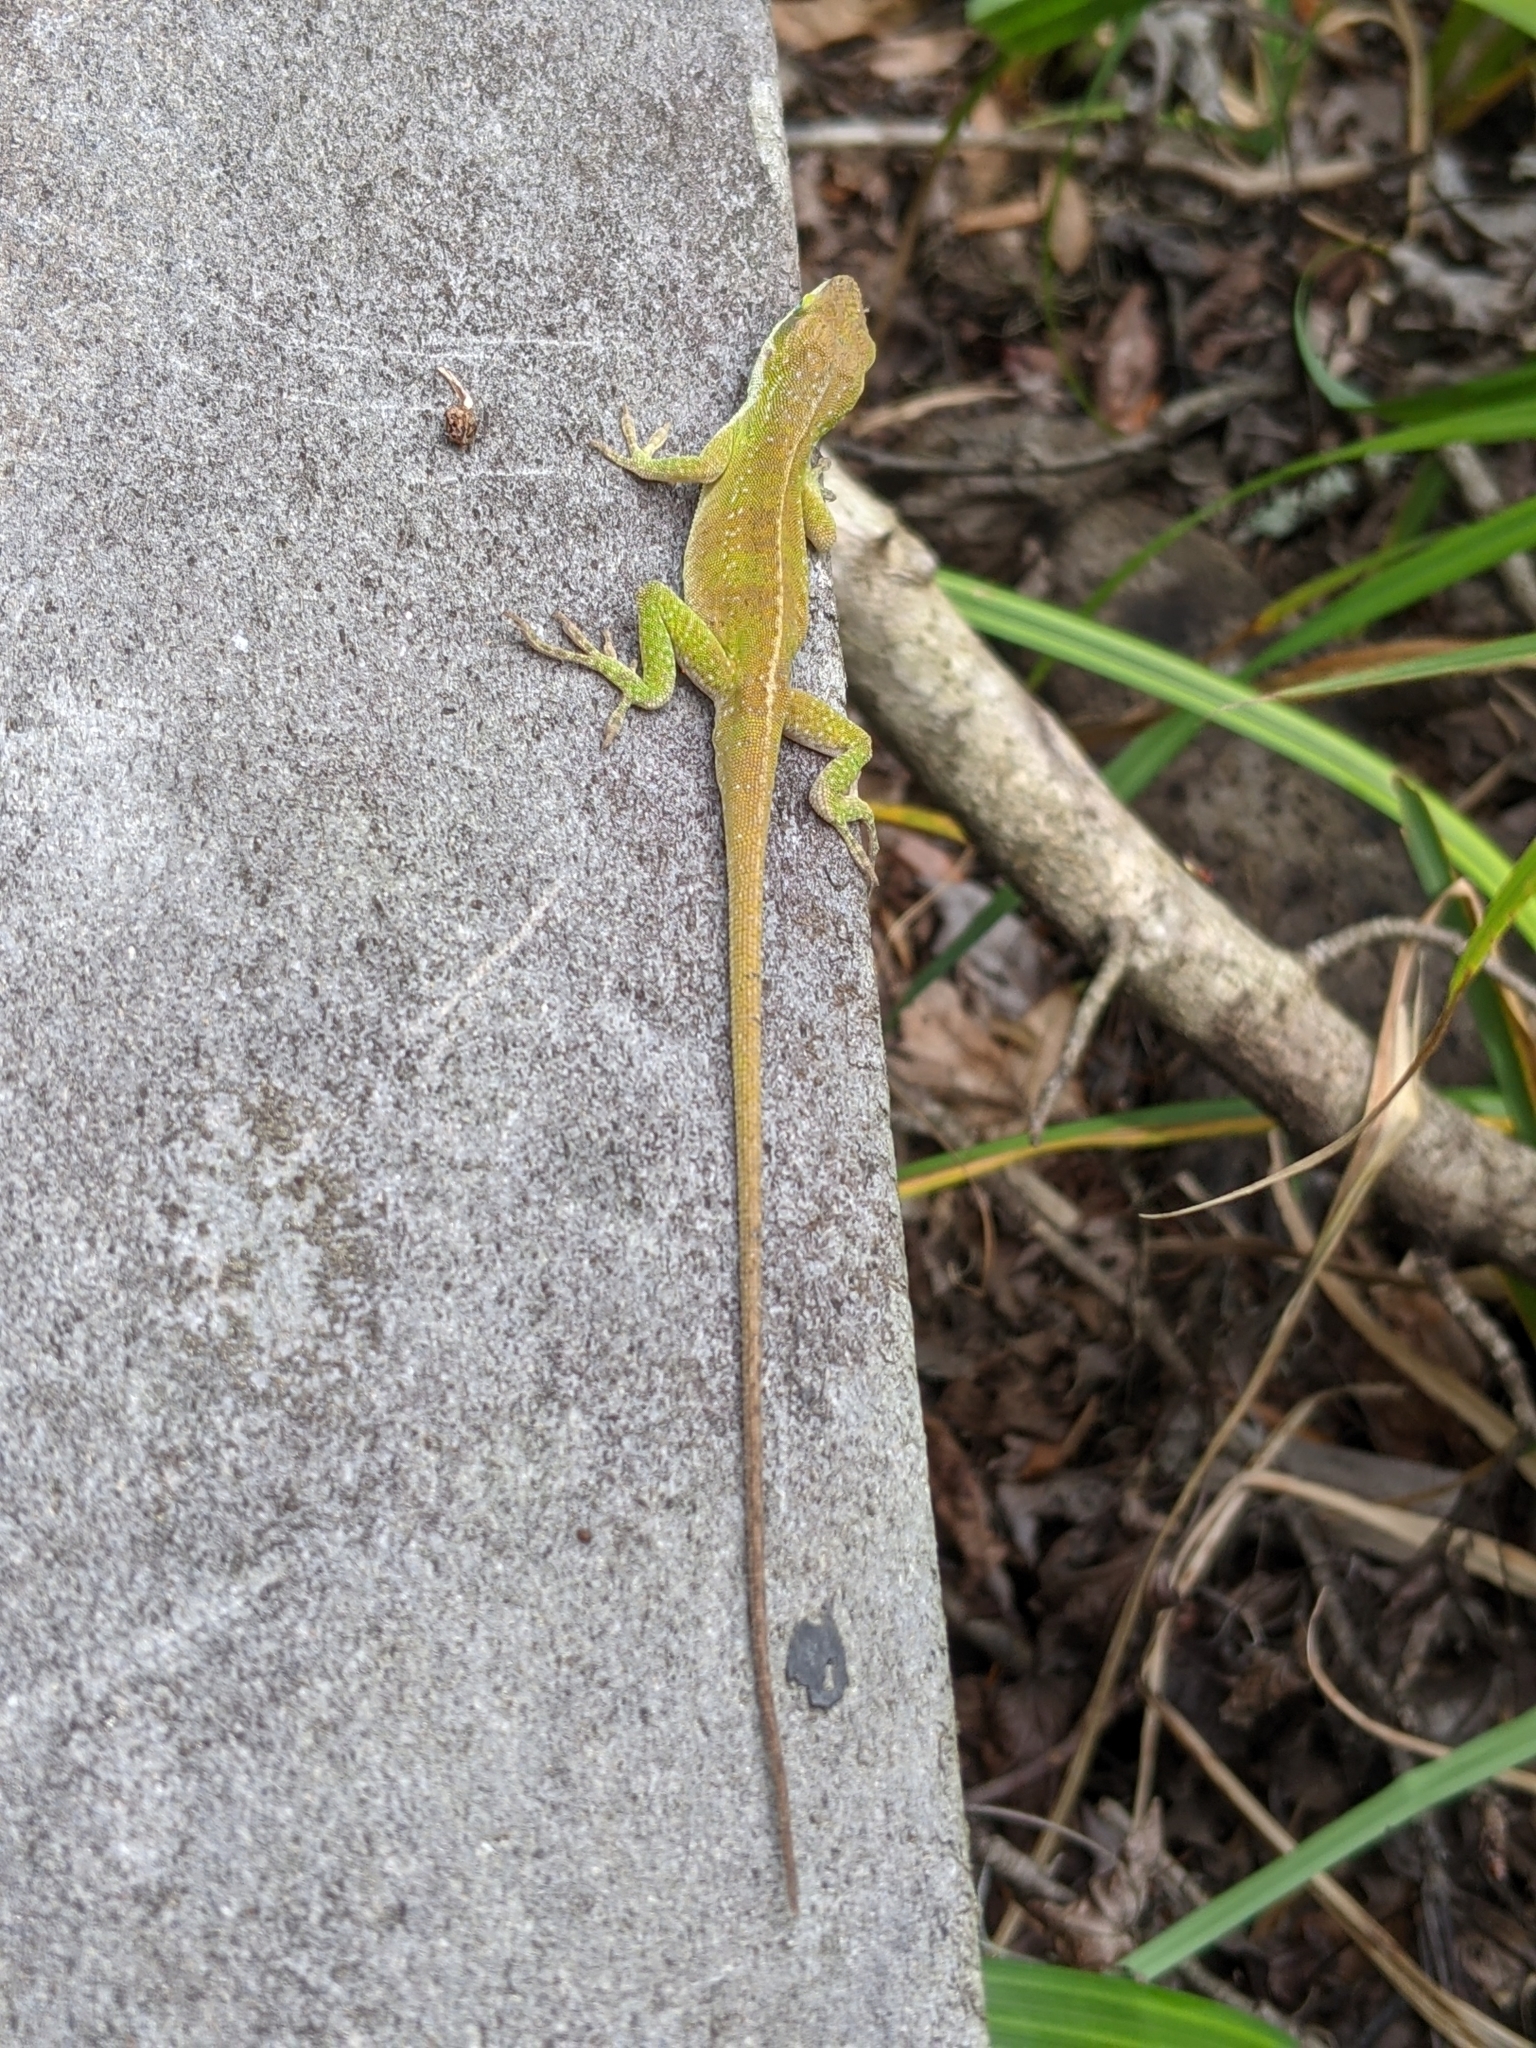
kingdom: Animalia
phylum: Chordata
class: Squamata
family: Dactyloidae
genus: Anolis
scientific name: Anolis carolinensis
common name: Green anole
